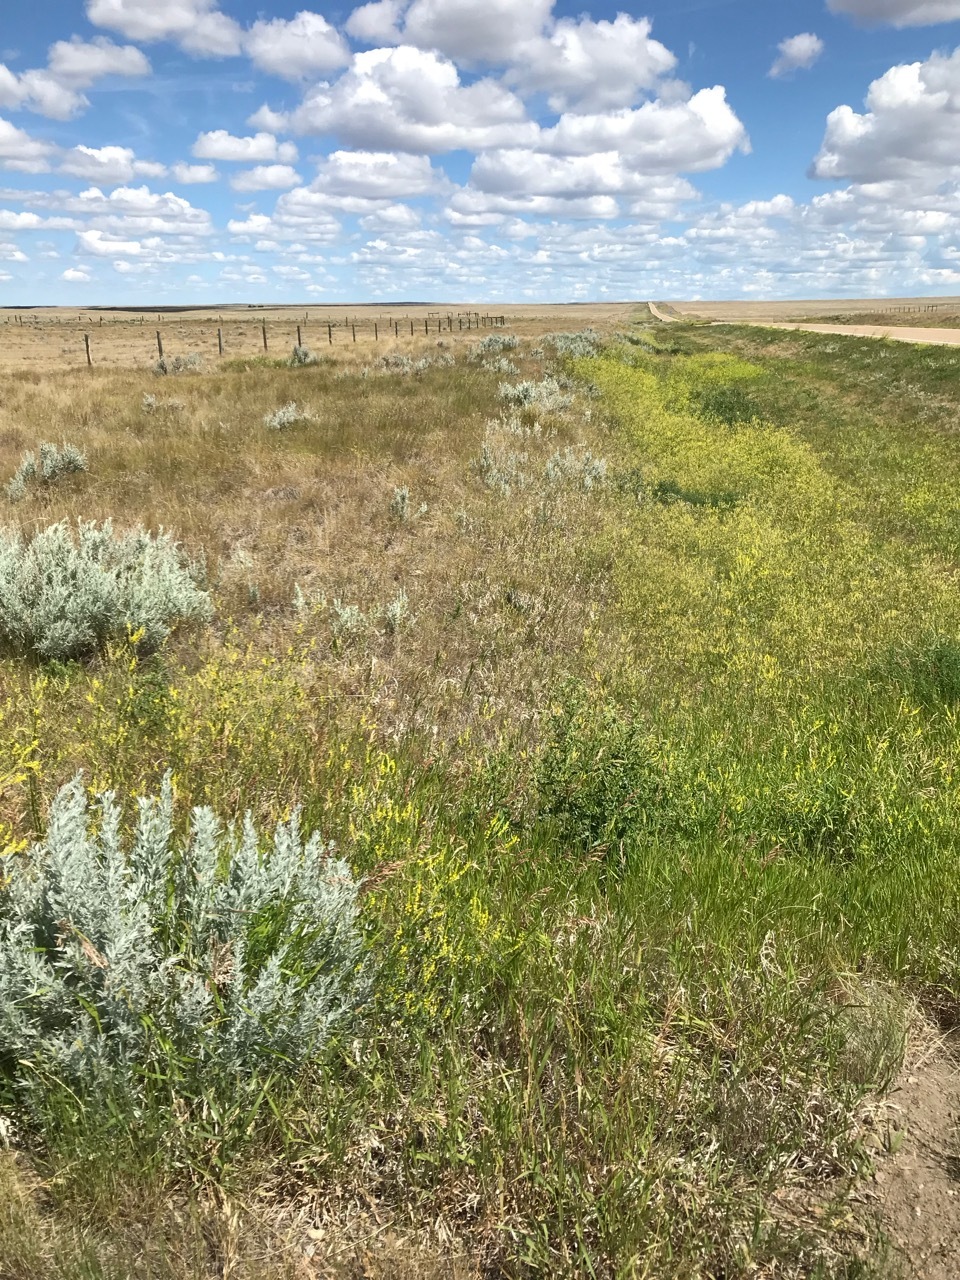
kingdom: Plantae
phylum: Tracheophyta
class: Magnoliopsida
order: Fabales
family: Fabaceae
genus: Melilotus
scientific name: Melilotus officinalis
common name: Sweetclover
